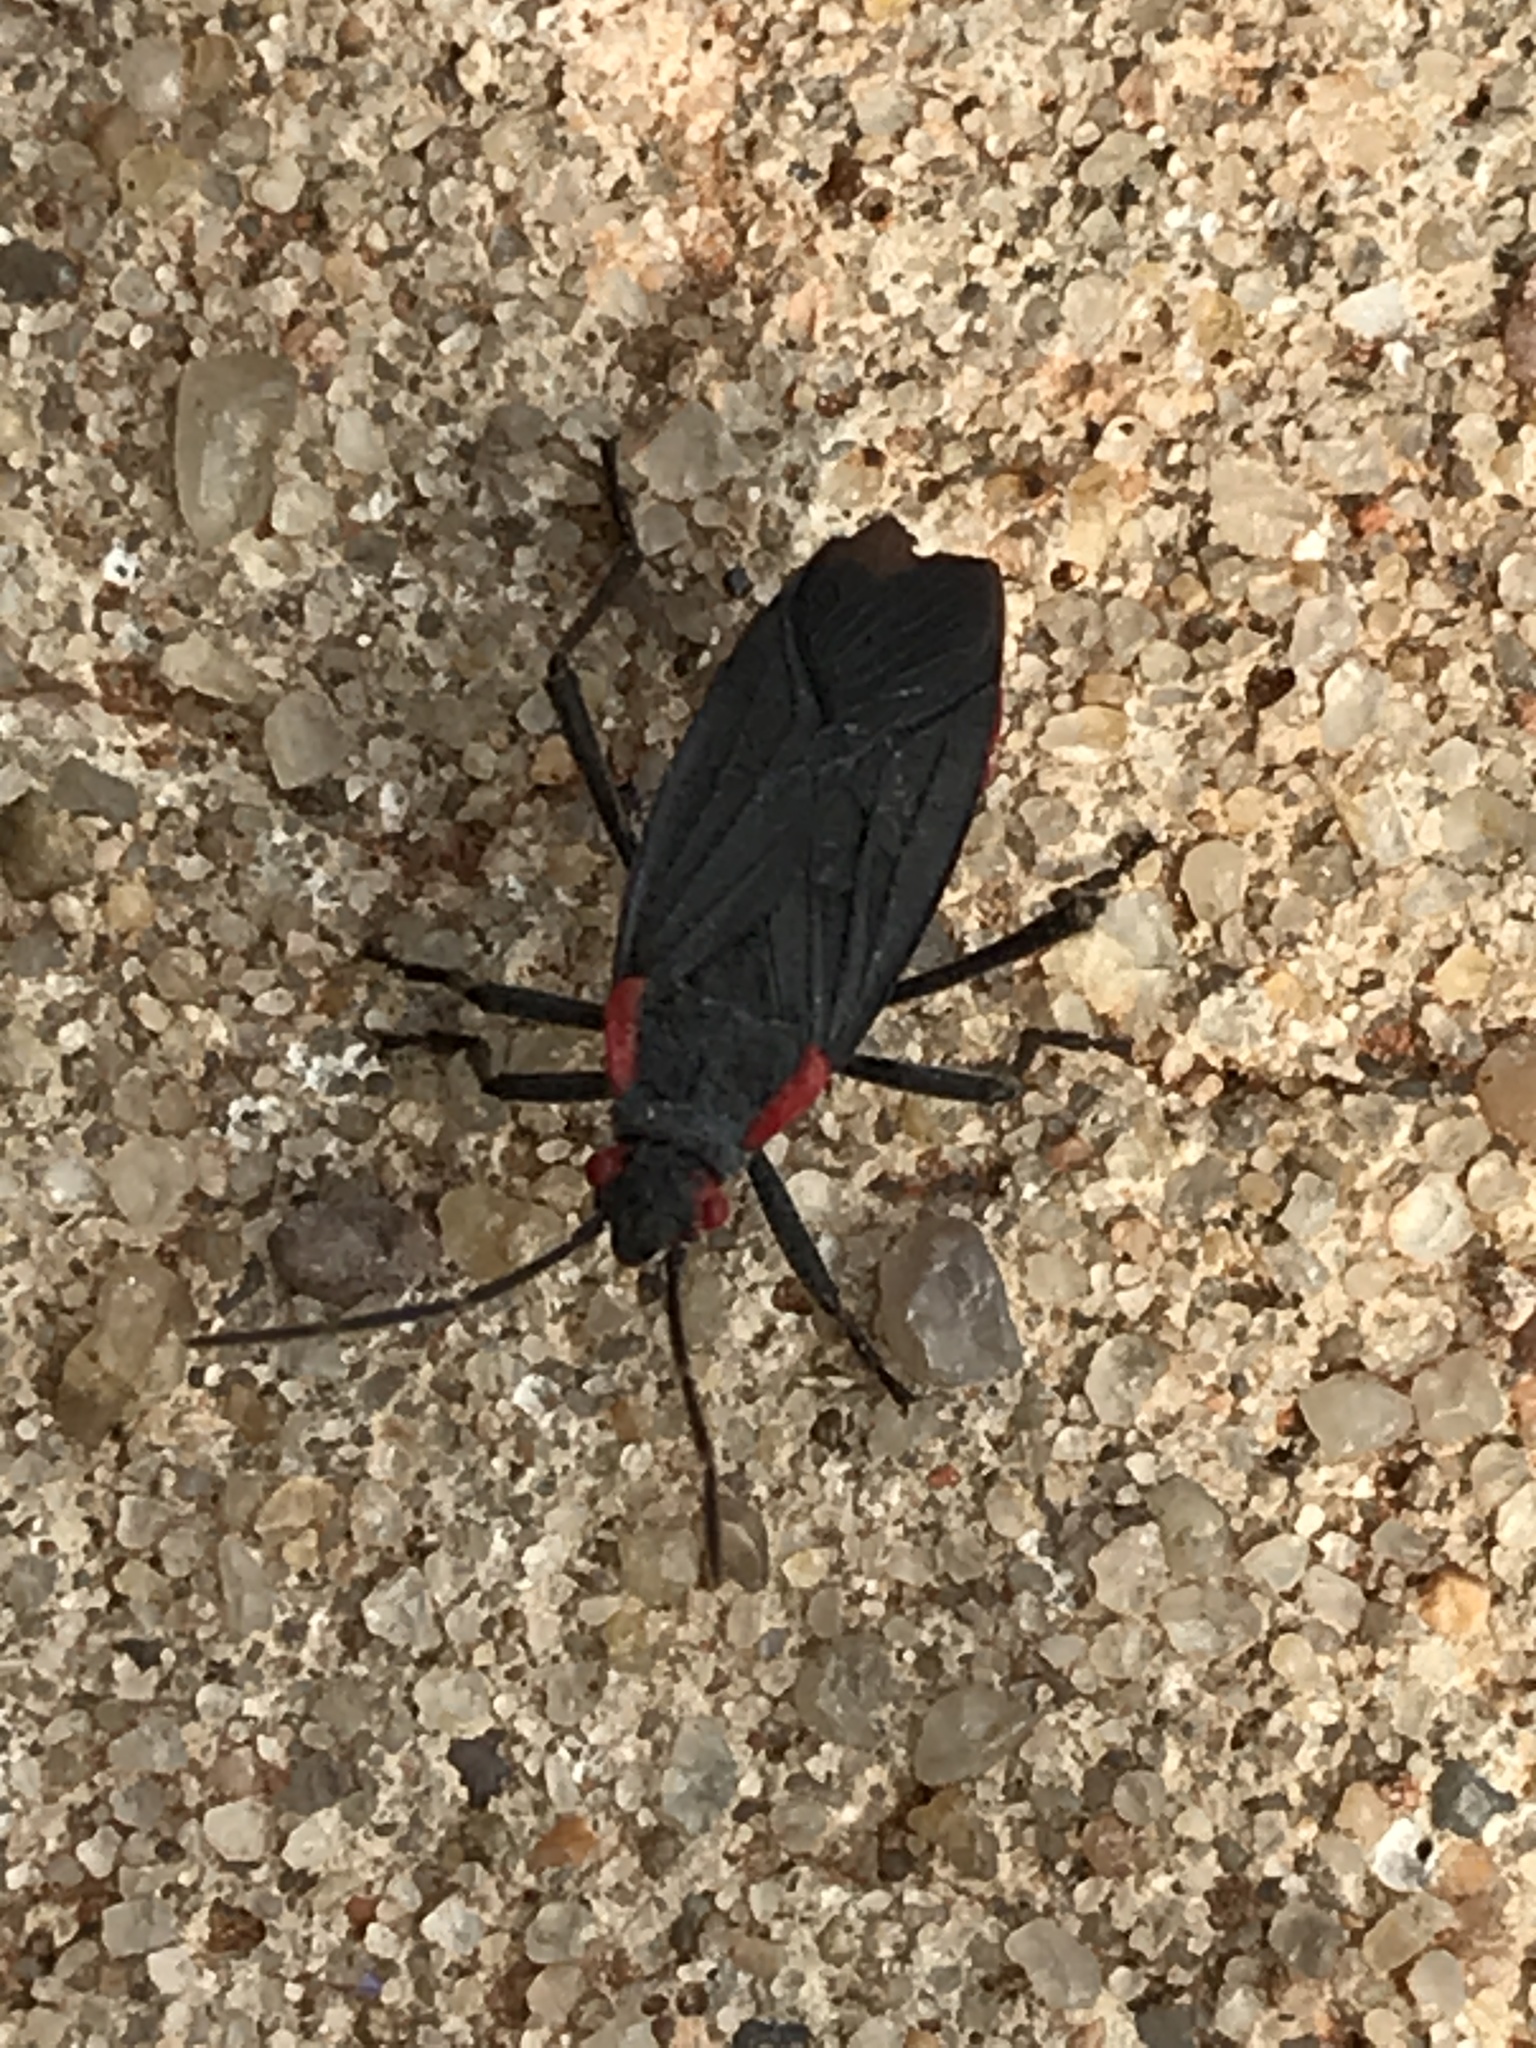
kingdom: Animalia
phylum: Arthropoda
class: Insecta
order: Hemiptera
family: Rhopalidae
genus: Jadera
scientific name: Jadera haematoloma
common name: Red-shouldered bug
